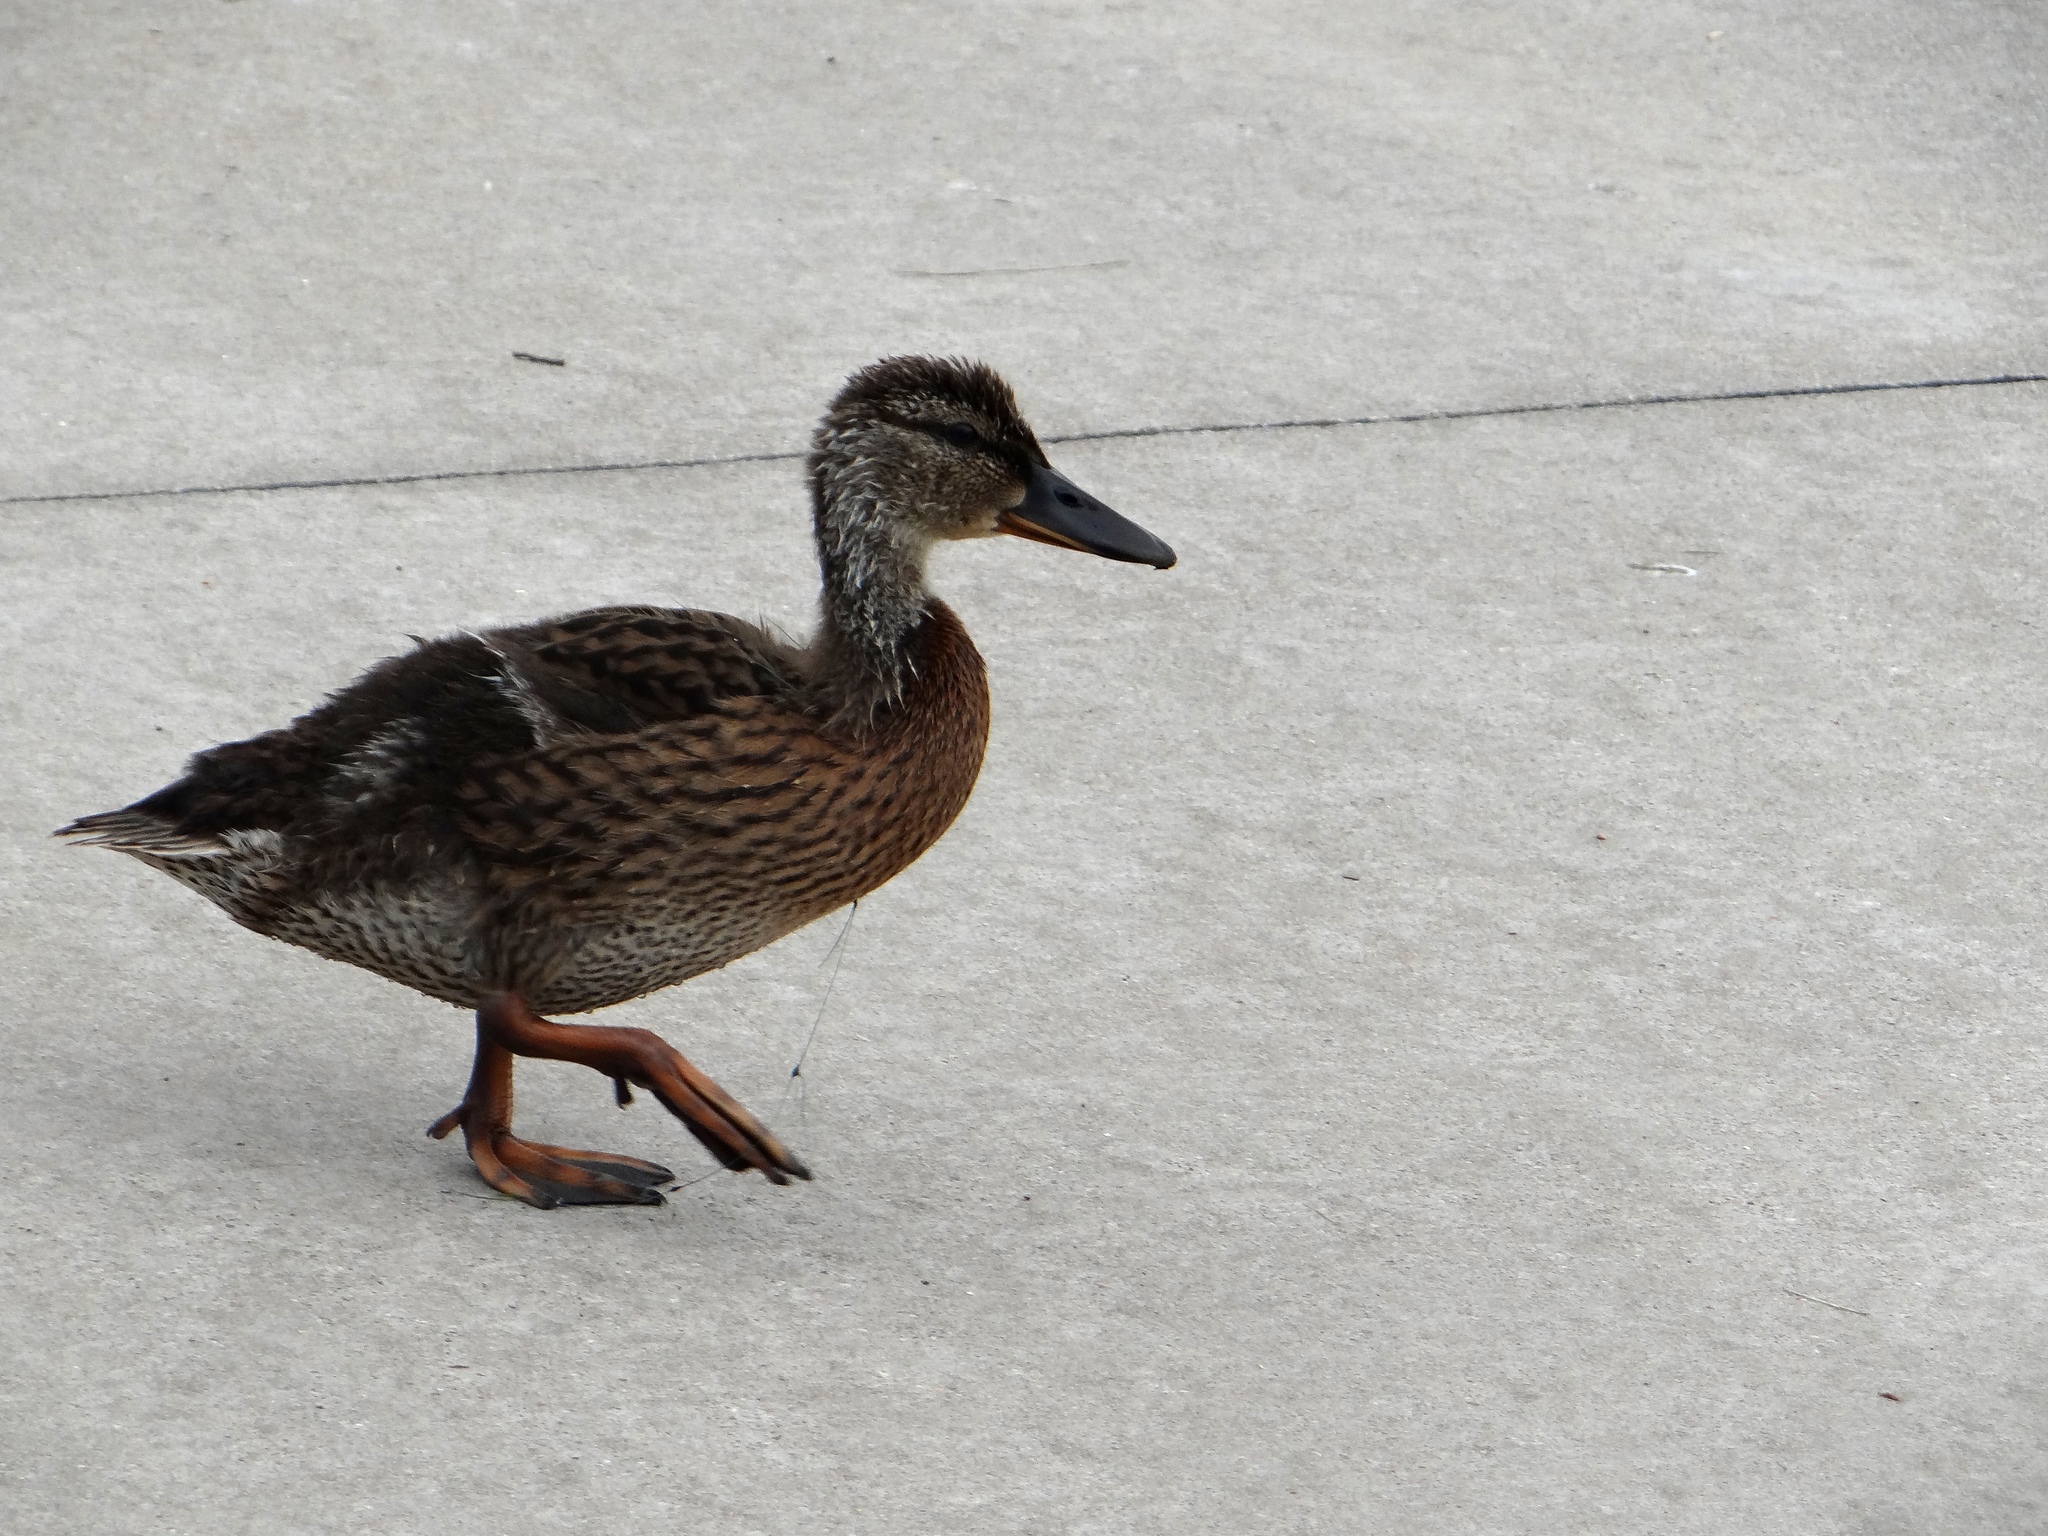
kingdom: Animalia
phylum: Chordata
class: Aves
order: Anseriformes
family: Anatidae
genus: Anas
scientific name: Anas platyrhynchos
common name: Mallard
